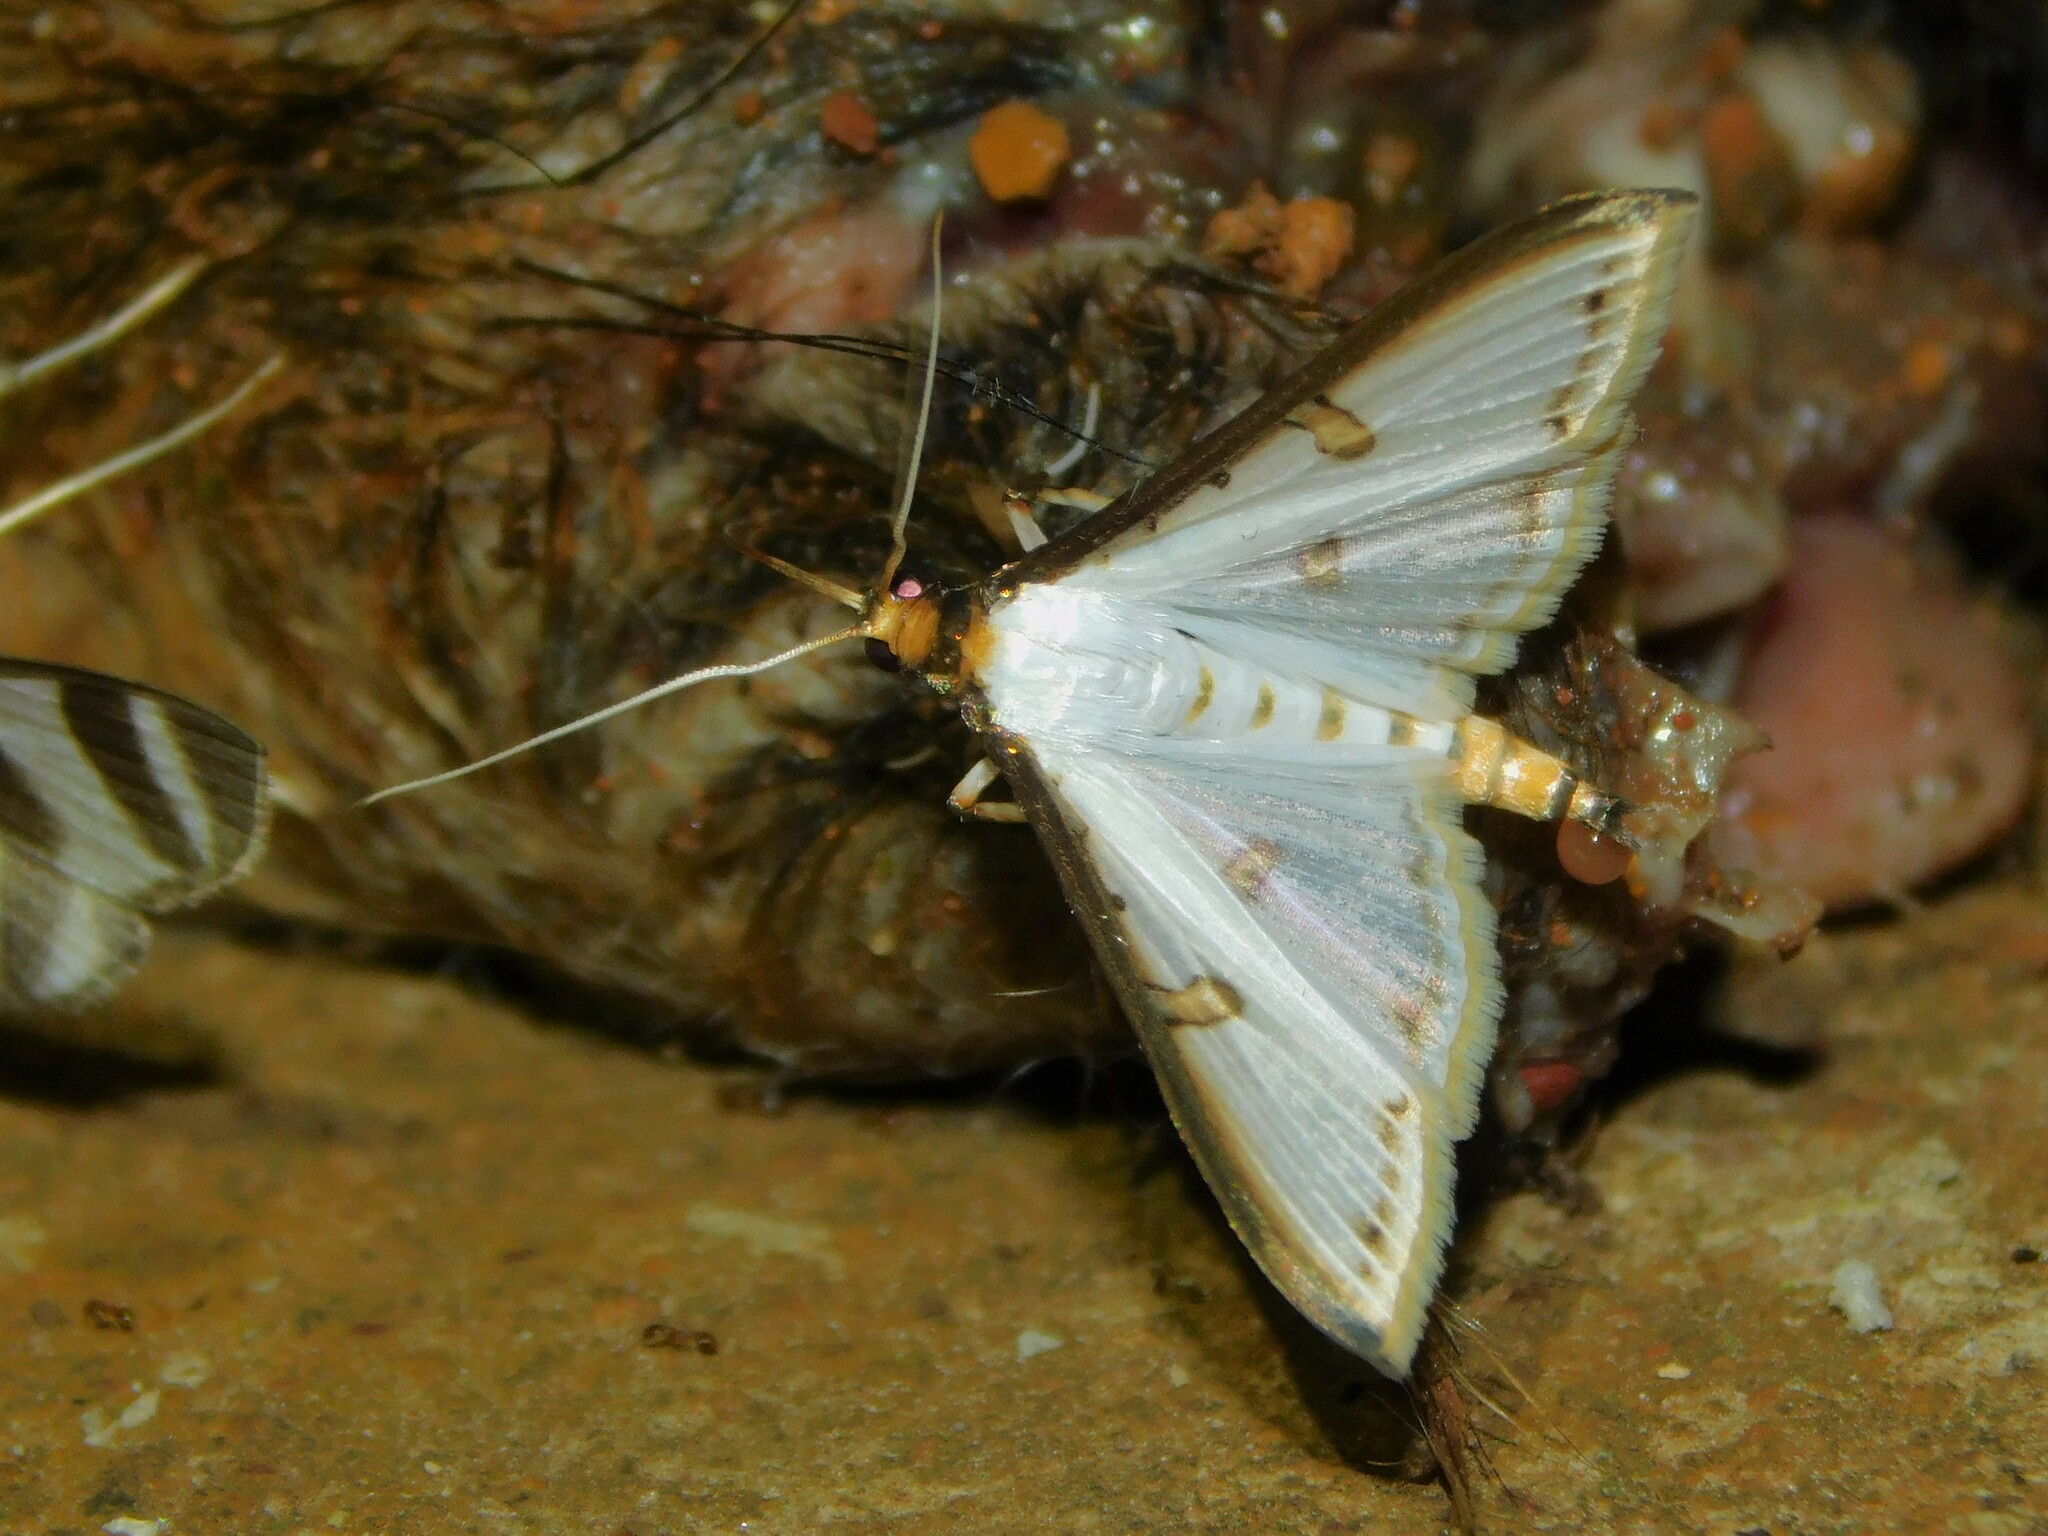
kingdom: Animalia
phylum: Arthropoda
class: Insecta
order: Lepidoptera
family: Crambidae
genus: Palpita
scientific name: Palpita metallata
